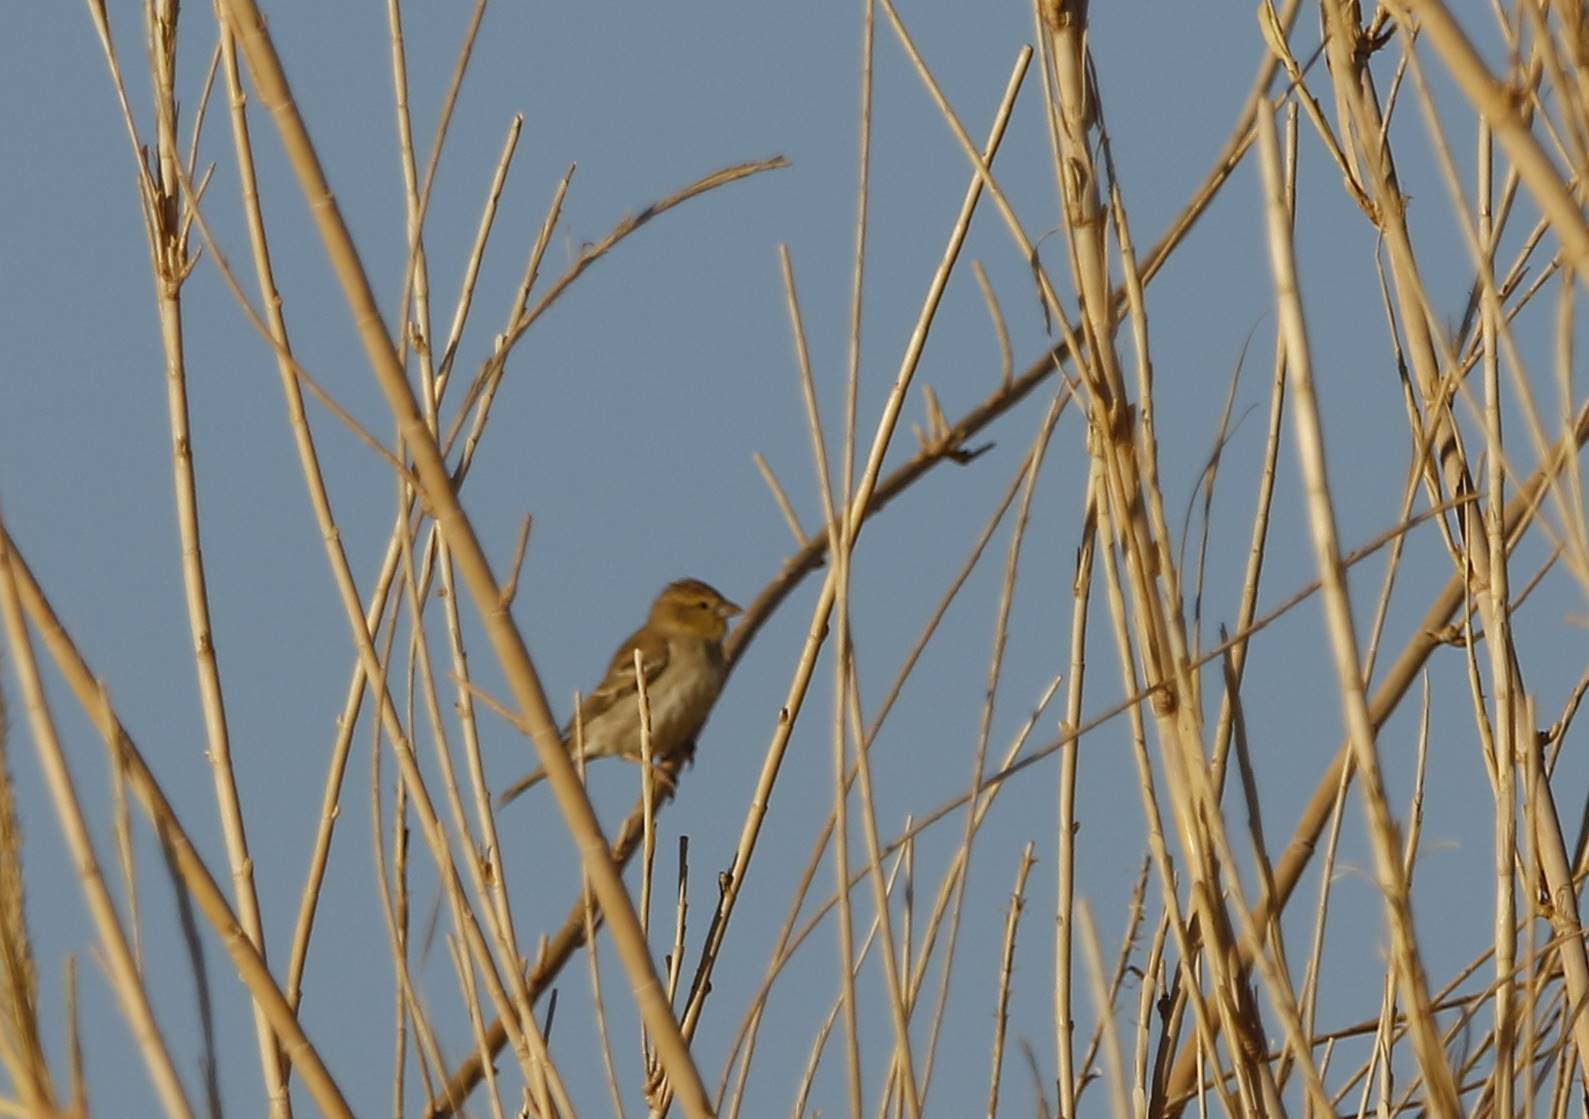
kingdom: Animalia
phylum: Chordata
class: Aves
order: Passeriformes
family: Passeridae
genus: Passer
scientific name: Passer luteus
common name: Sudan golden sparrow
